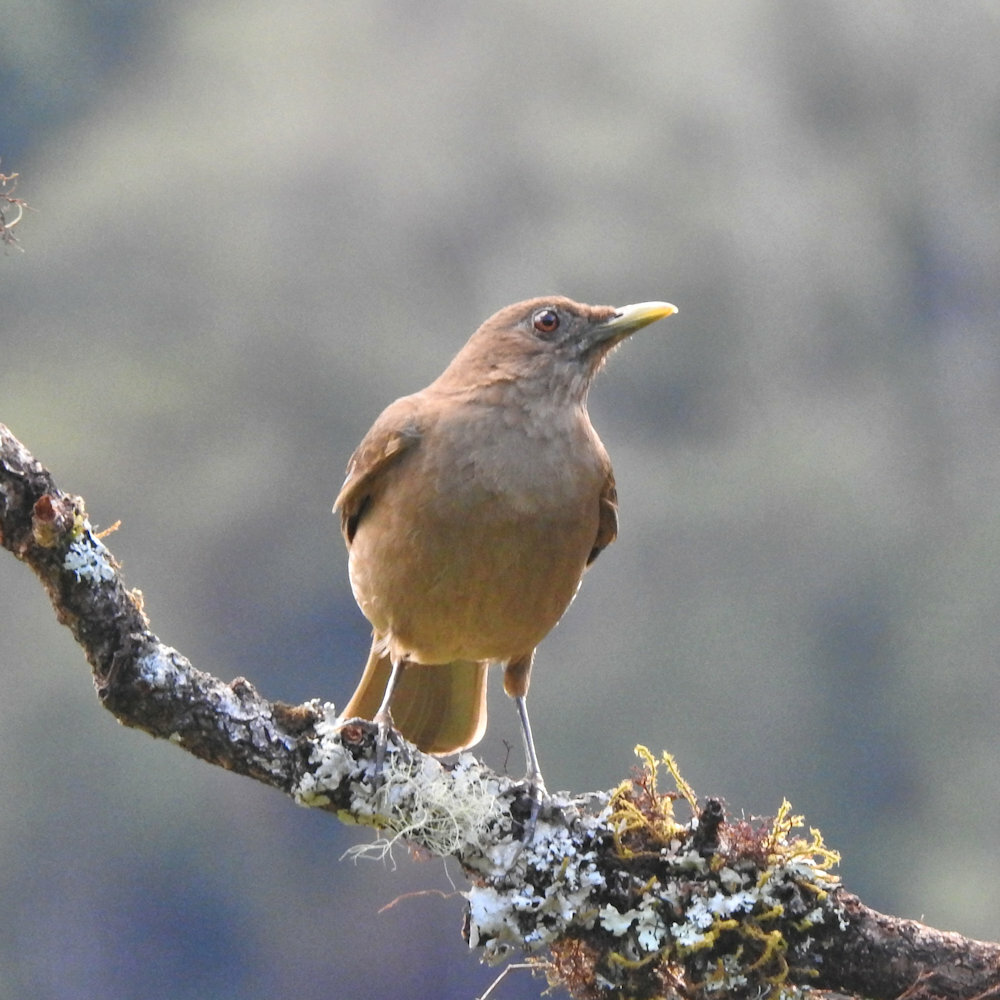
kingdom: Animalia
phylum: Chordata
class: Aves
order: Passeriformes
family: Turdidae
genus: Turdus
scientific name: Turdus grayi
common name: Clay-colored thrush
